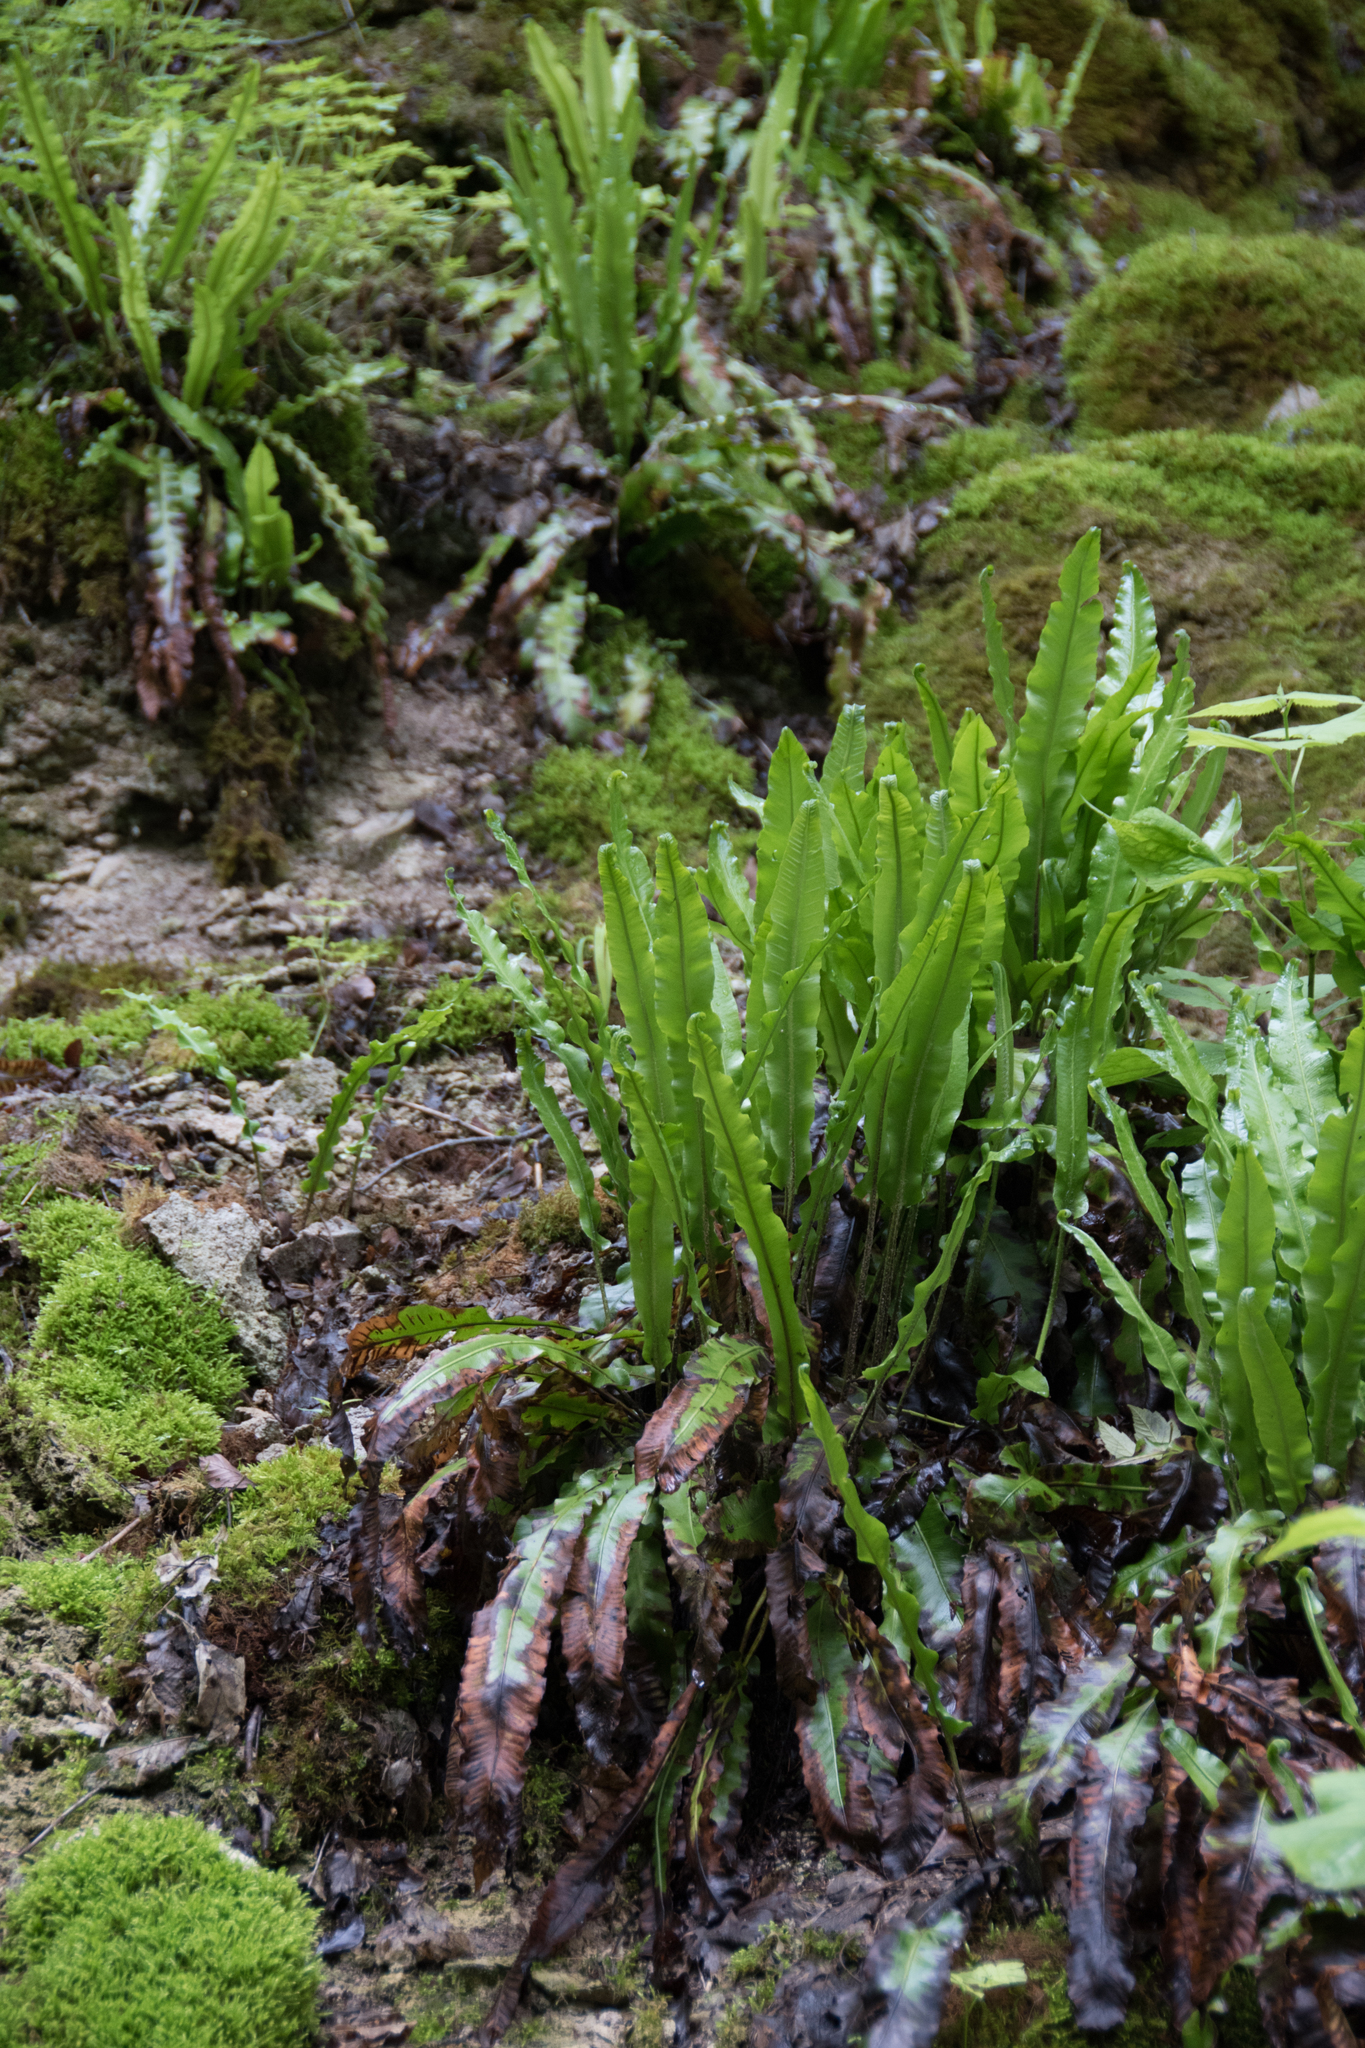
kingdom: Plantae
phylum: Tracheophyta
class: Polypodiopsida
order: Polypodiales
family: Aspleniaceae
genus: Asplenium
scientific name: Asplenium scolopendrium
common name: Hart's-tongue fern
